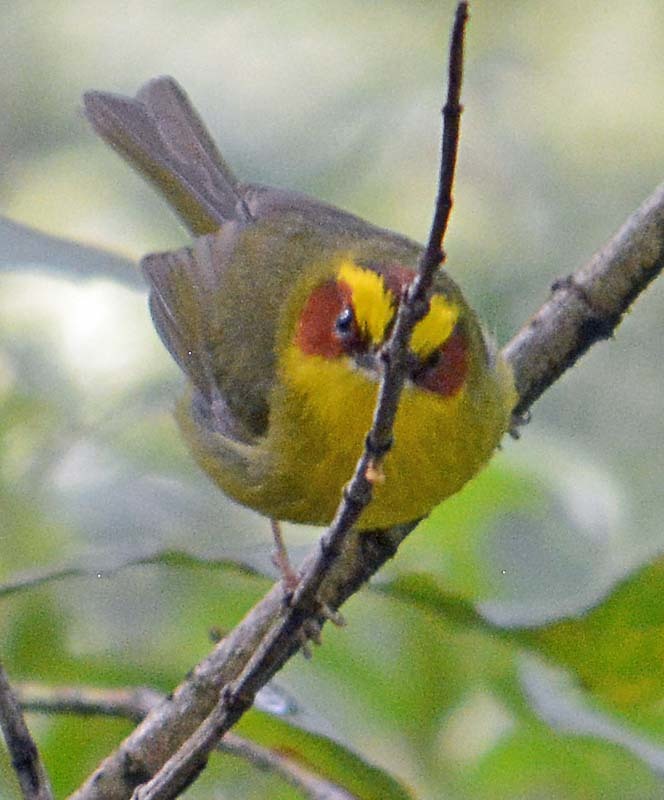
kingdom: Animalia
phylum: Chordata
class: Aves
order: Passeriformes
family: Parulidae
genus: Basileuterus
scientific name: Basileuterus belli
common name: Golden-browed warbler
